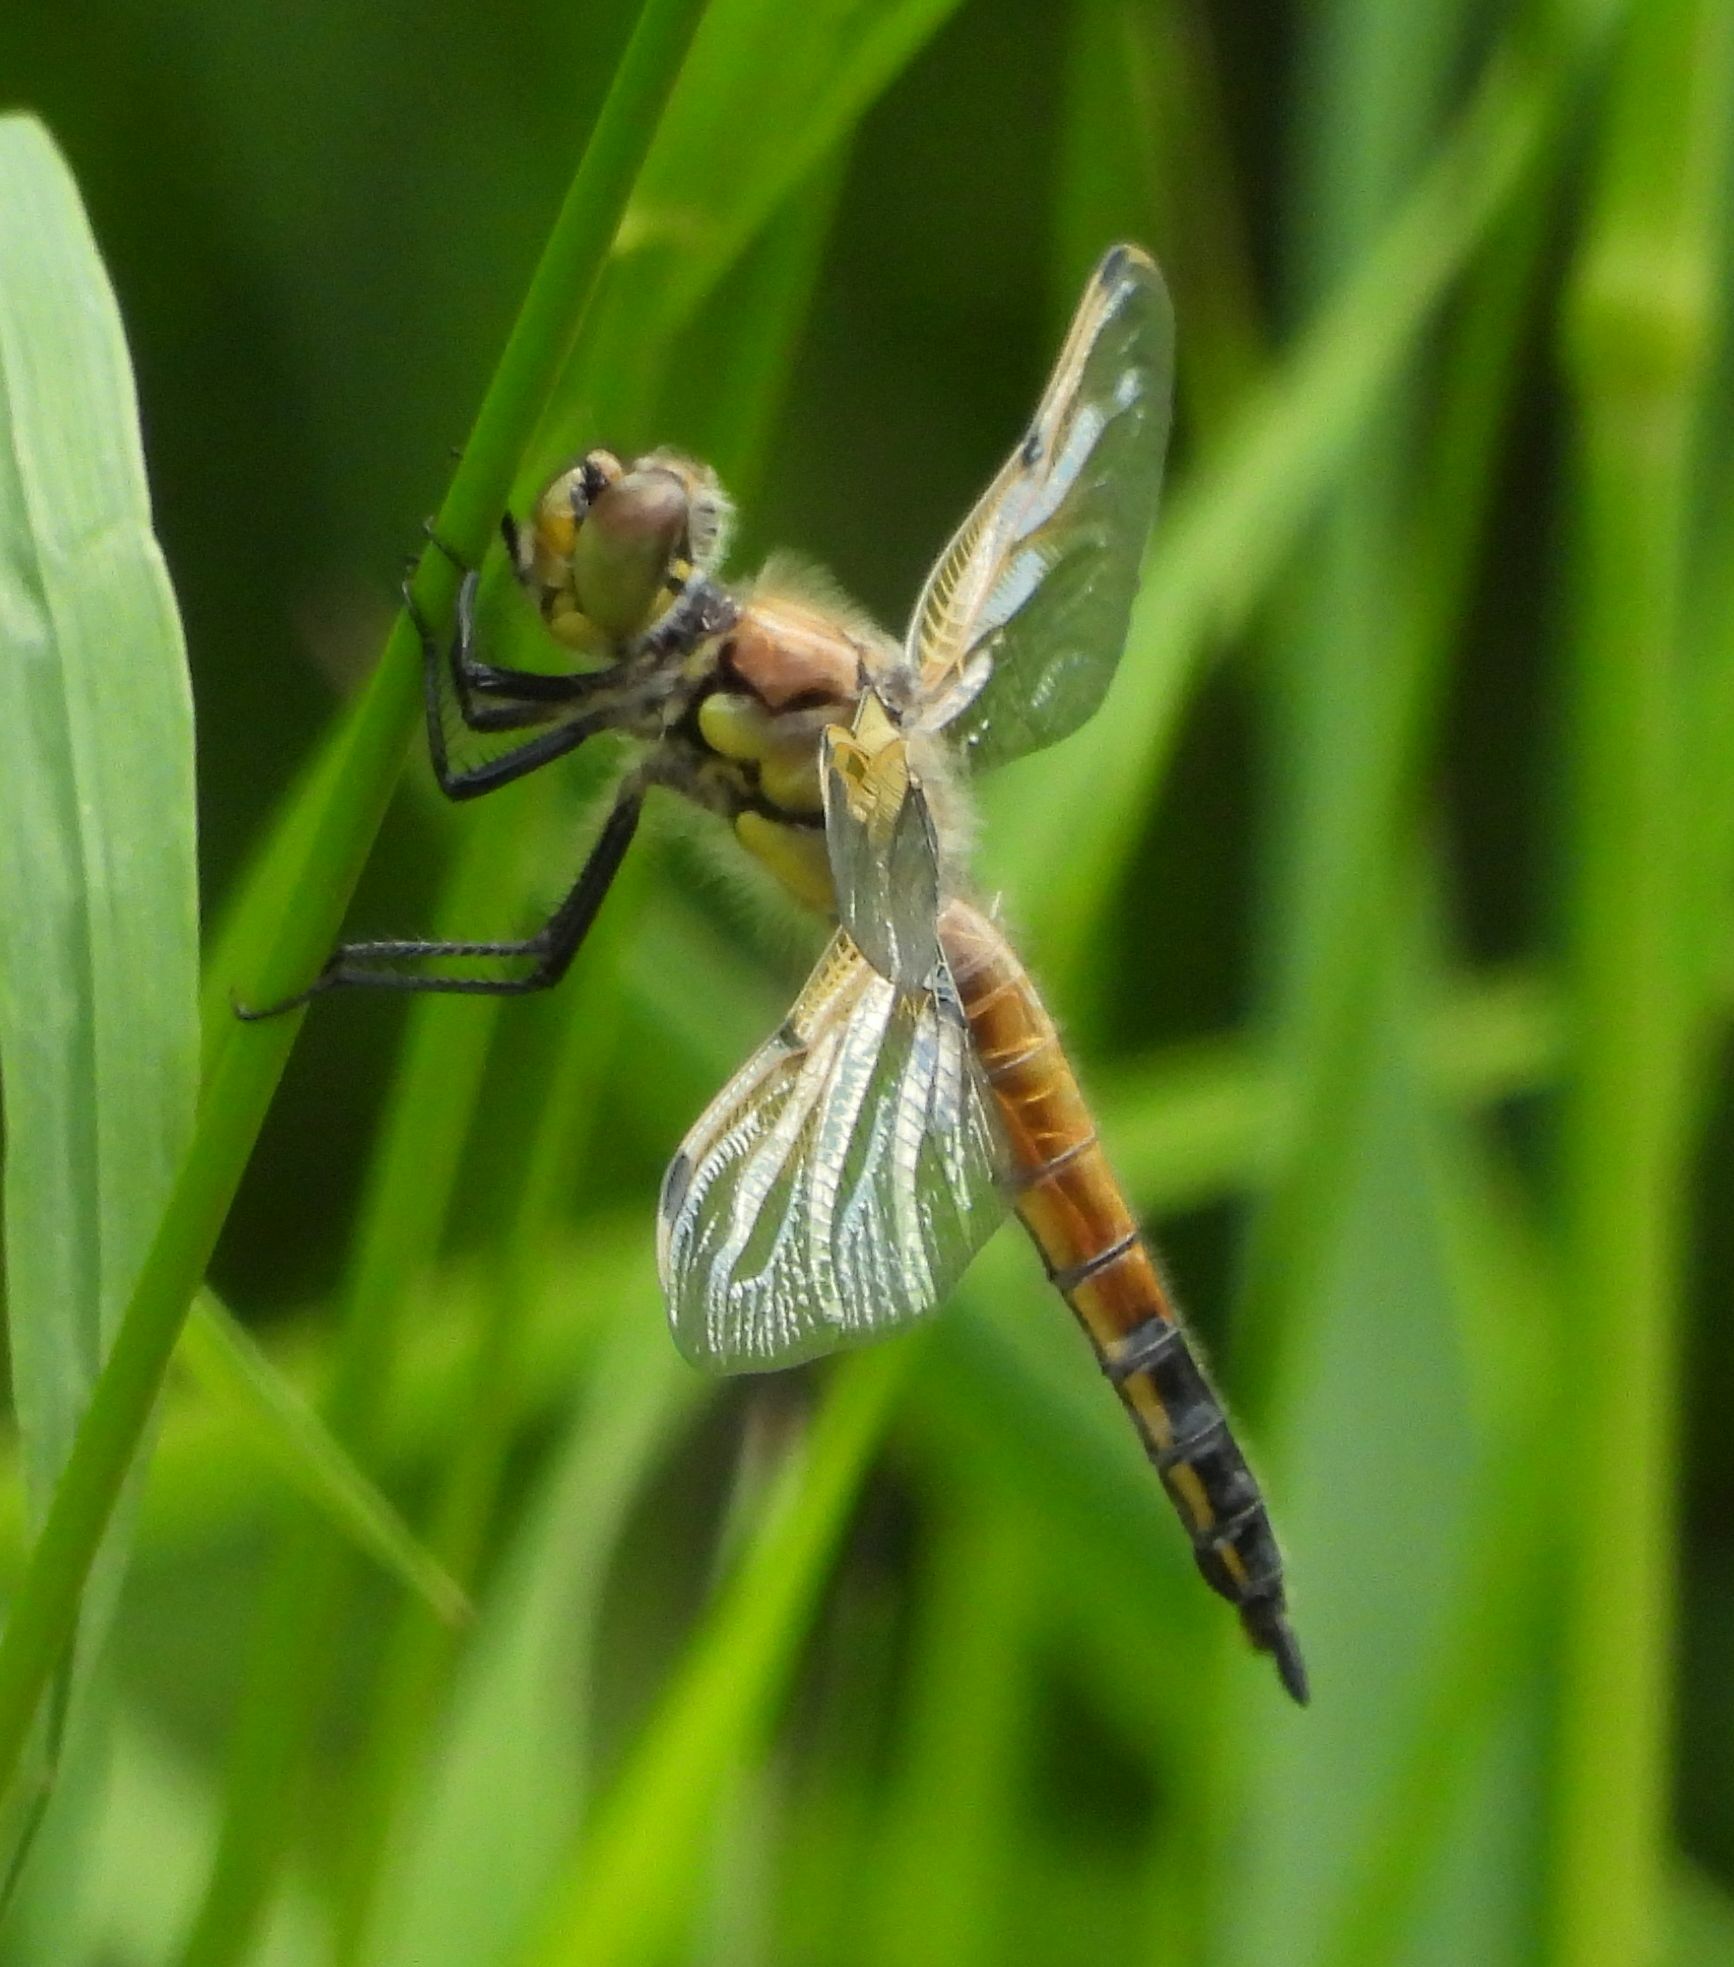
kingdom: Animalia
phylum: Arthropoda
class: Insecta
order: Odonata
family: Libellulidae
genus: Libellula
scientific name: Libellula quadrimaculata
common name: Four-spotted chaser
